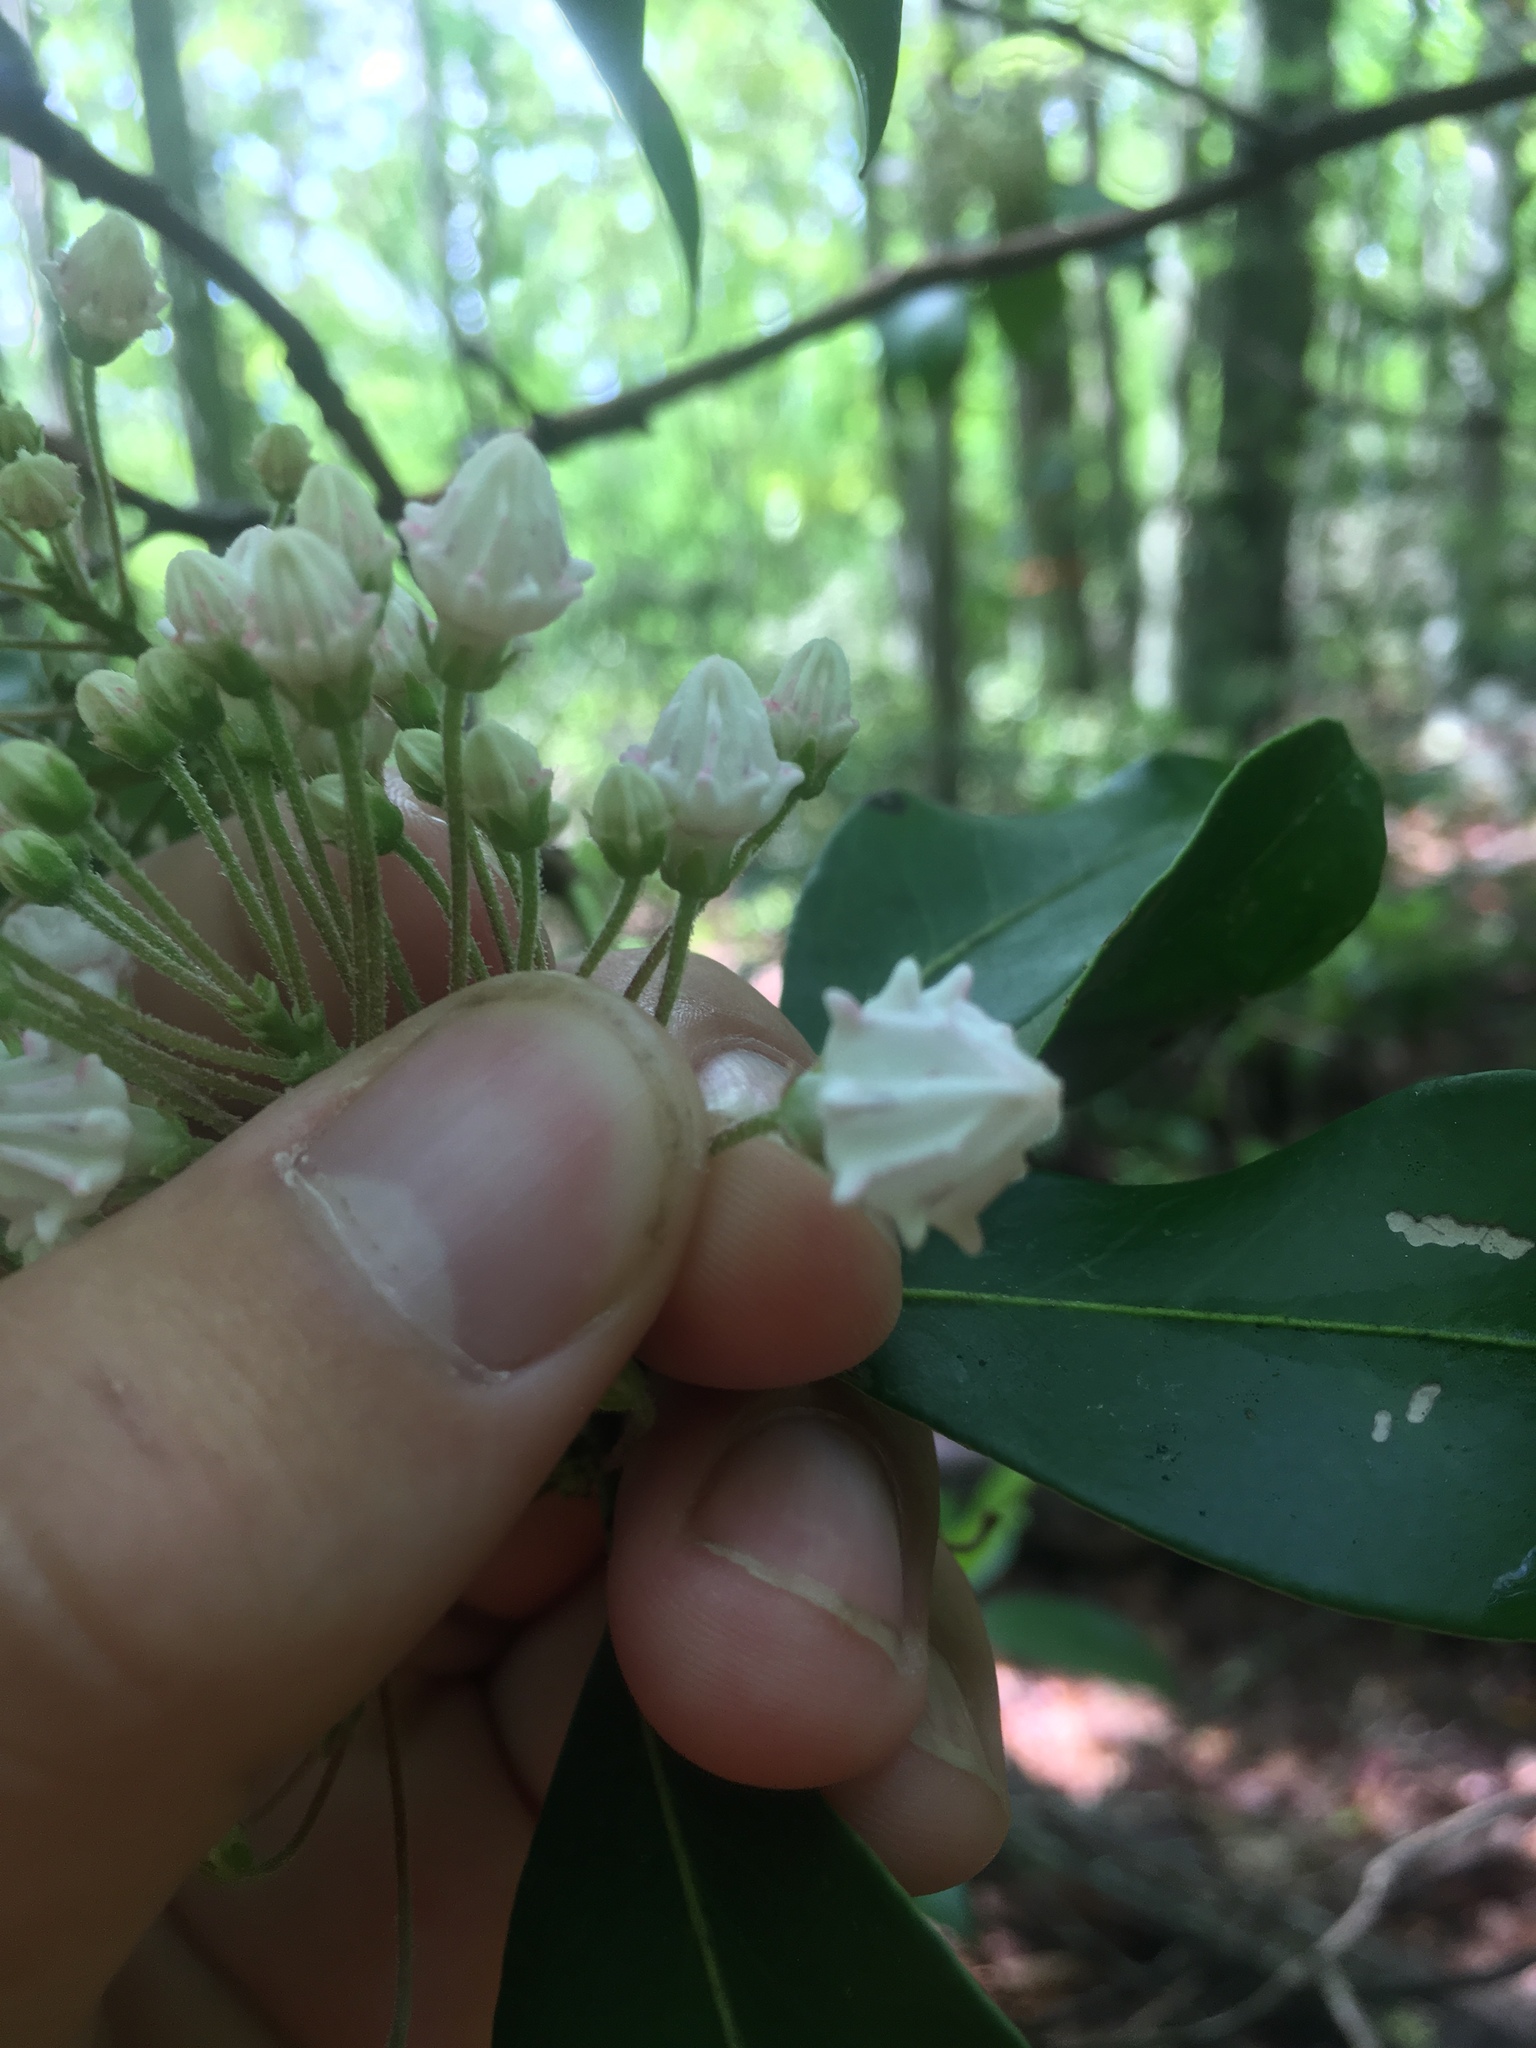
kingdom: Plantae
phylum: Tracheophyta
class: Magnoliopsida
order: Ericales
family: Ericaceae
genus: Kalmia
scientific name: Kalmia latifolia
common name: Mountain-laurel
